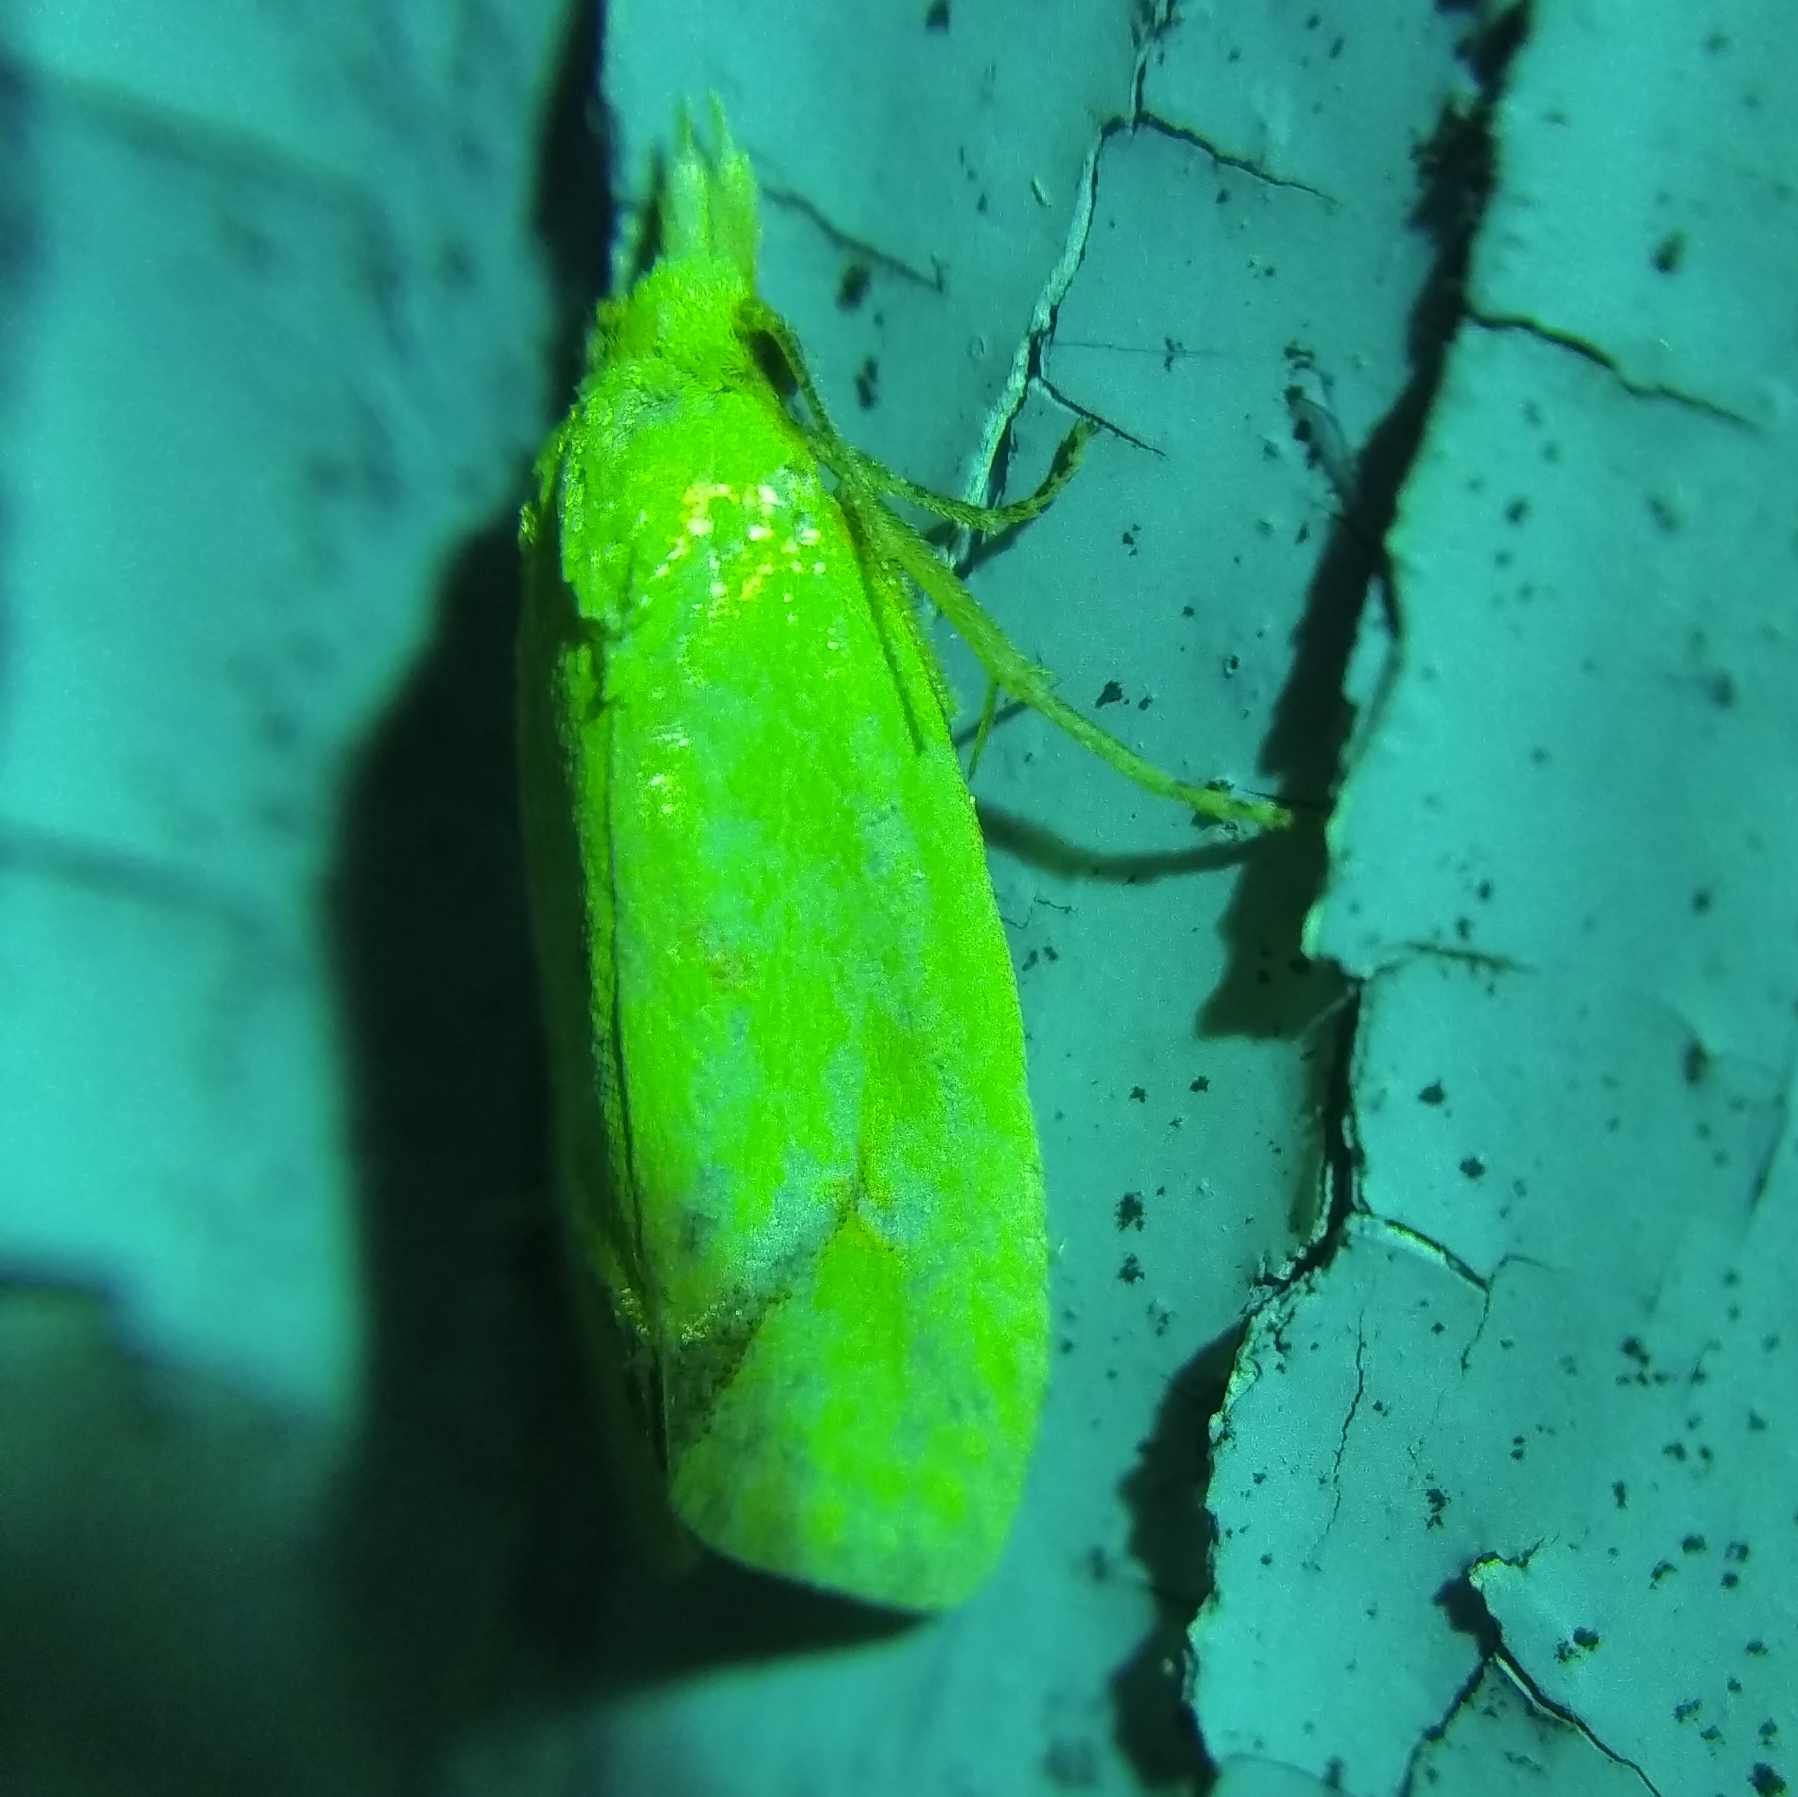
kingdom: Animalia
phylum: Arthropoda
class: Insecta
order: Lepidoptera
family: Tortricidae
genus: Agapeta
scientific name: Agapeta hamana
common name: Common yellow conch
